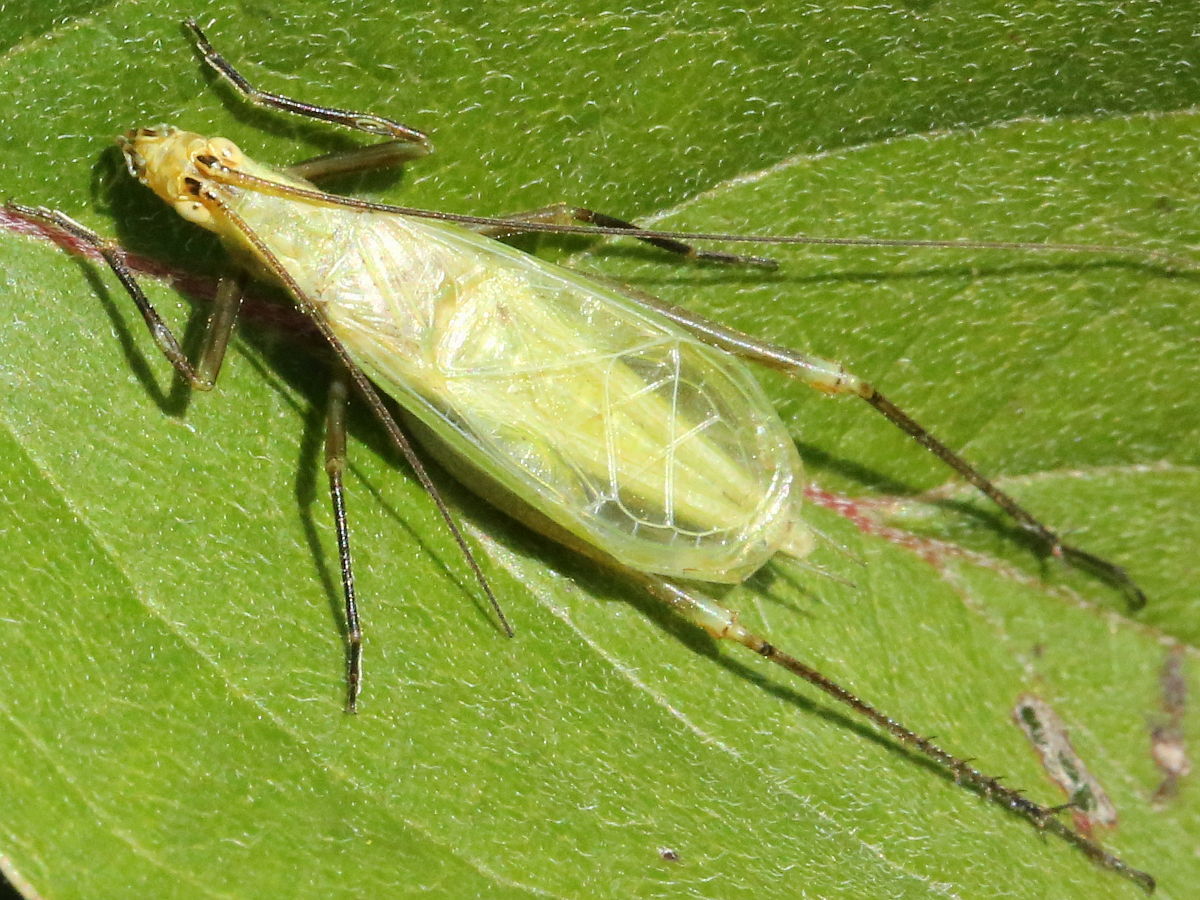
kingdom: Animalia
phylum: Arthropoda
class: Insecta
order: Orthoptera
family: Gryllidae
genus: Oecanthus
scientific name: Oecanthus forbesi
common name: Forbes’s tree cricket
